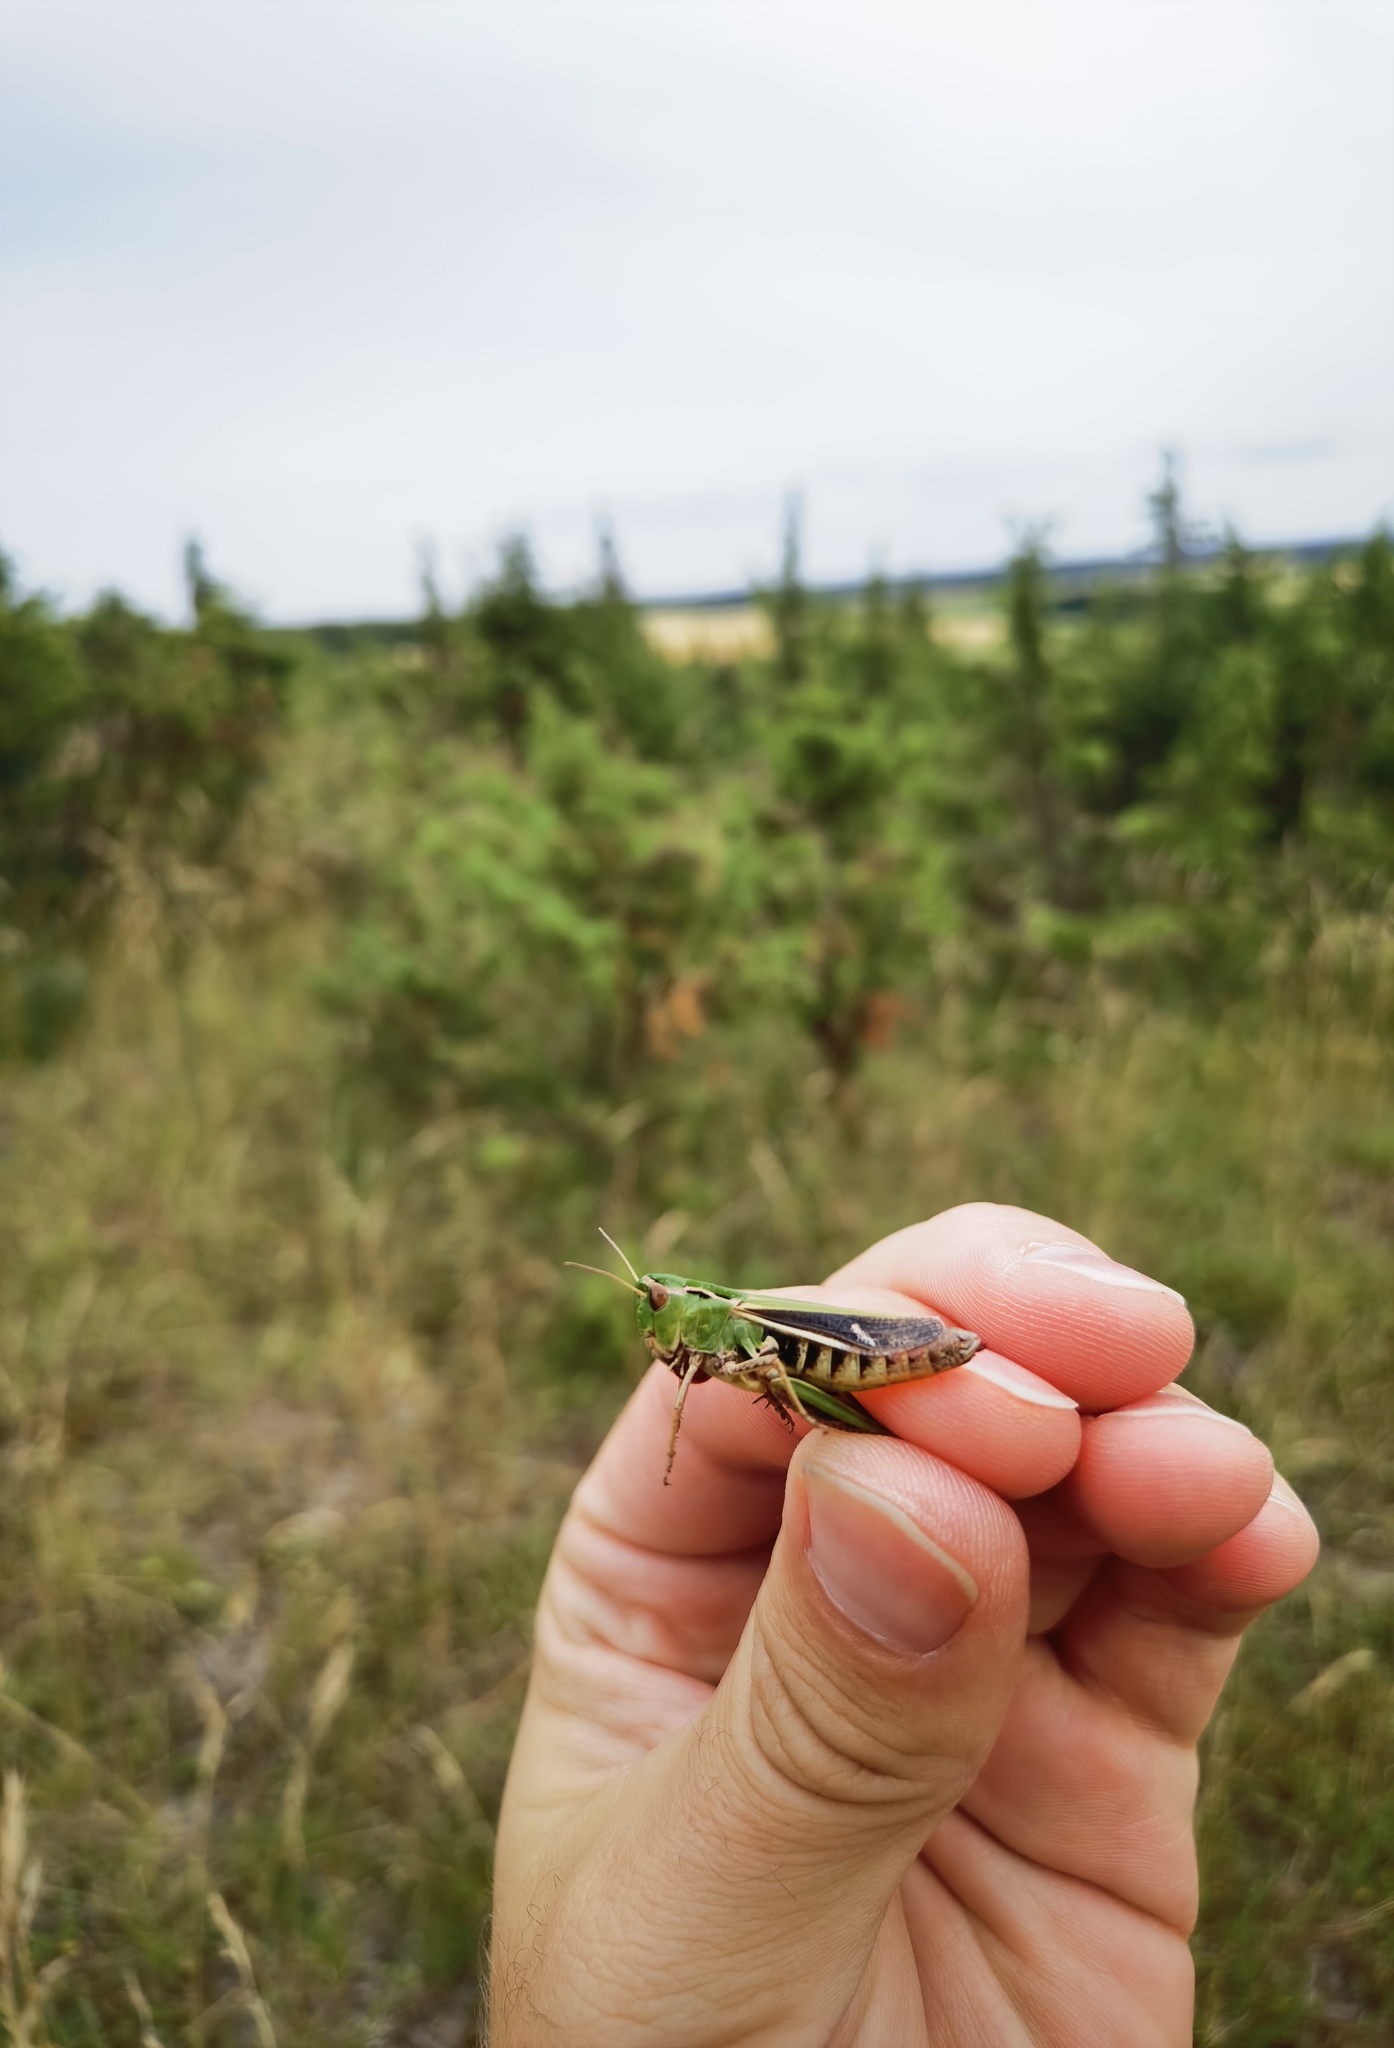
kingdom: Animalia
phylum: Arthropoda
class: Insecta
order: Orthoptera
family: Acrididae
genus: Stenobothrus
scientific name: Stenobothrus lineatus
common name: Stripe-winged grasshopper
